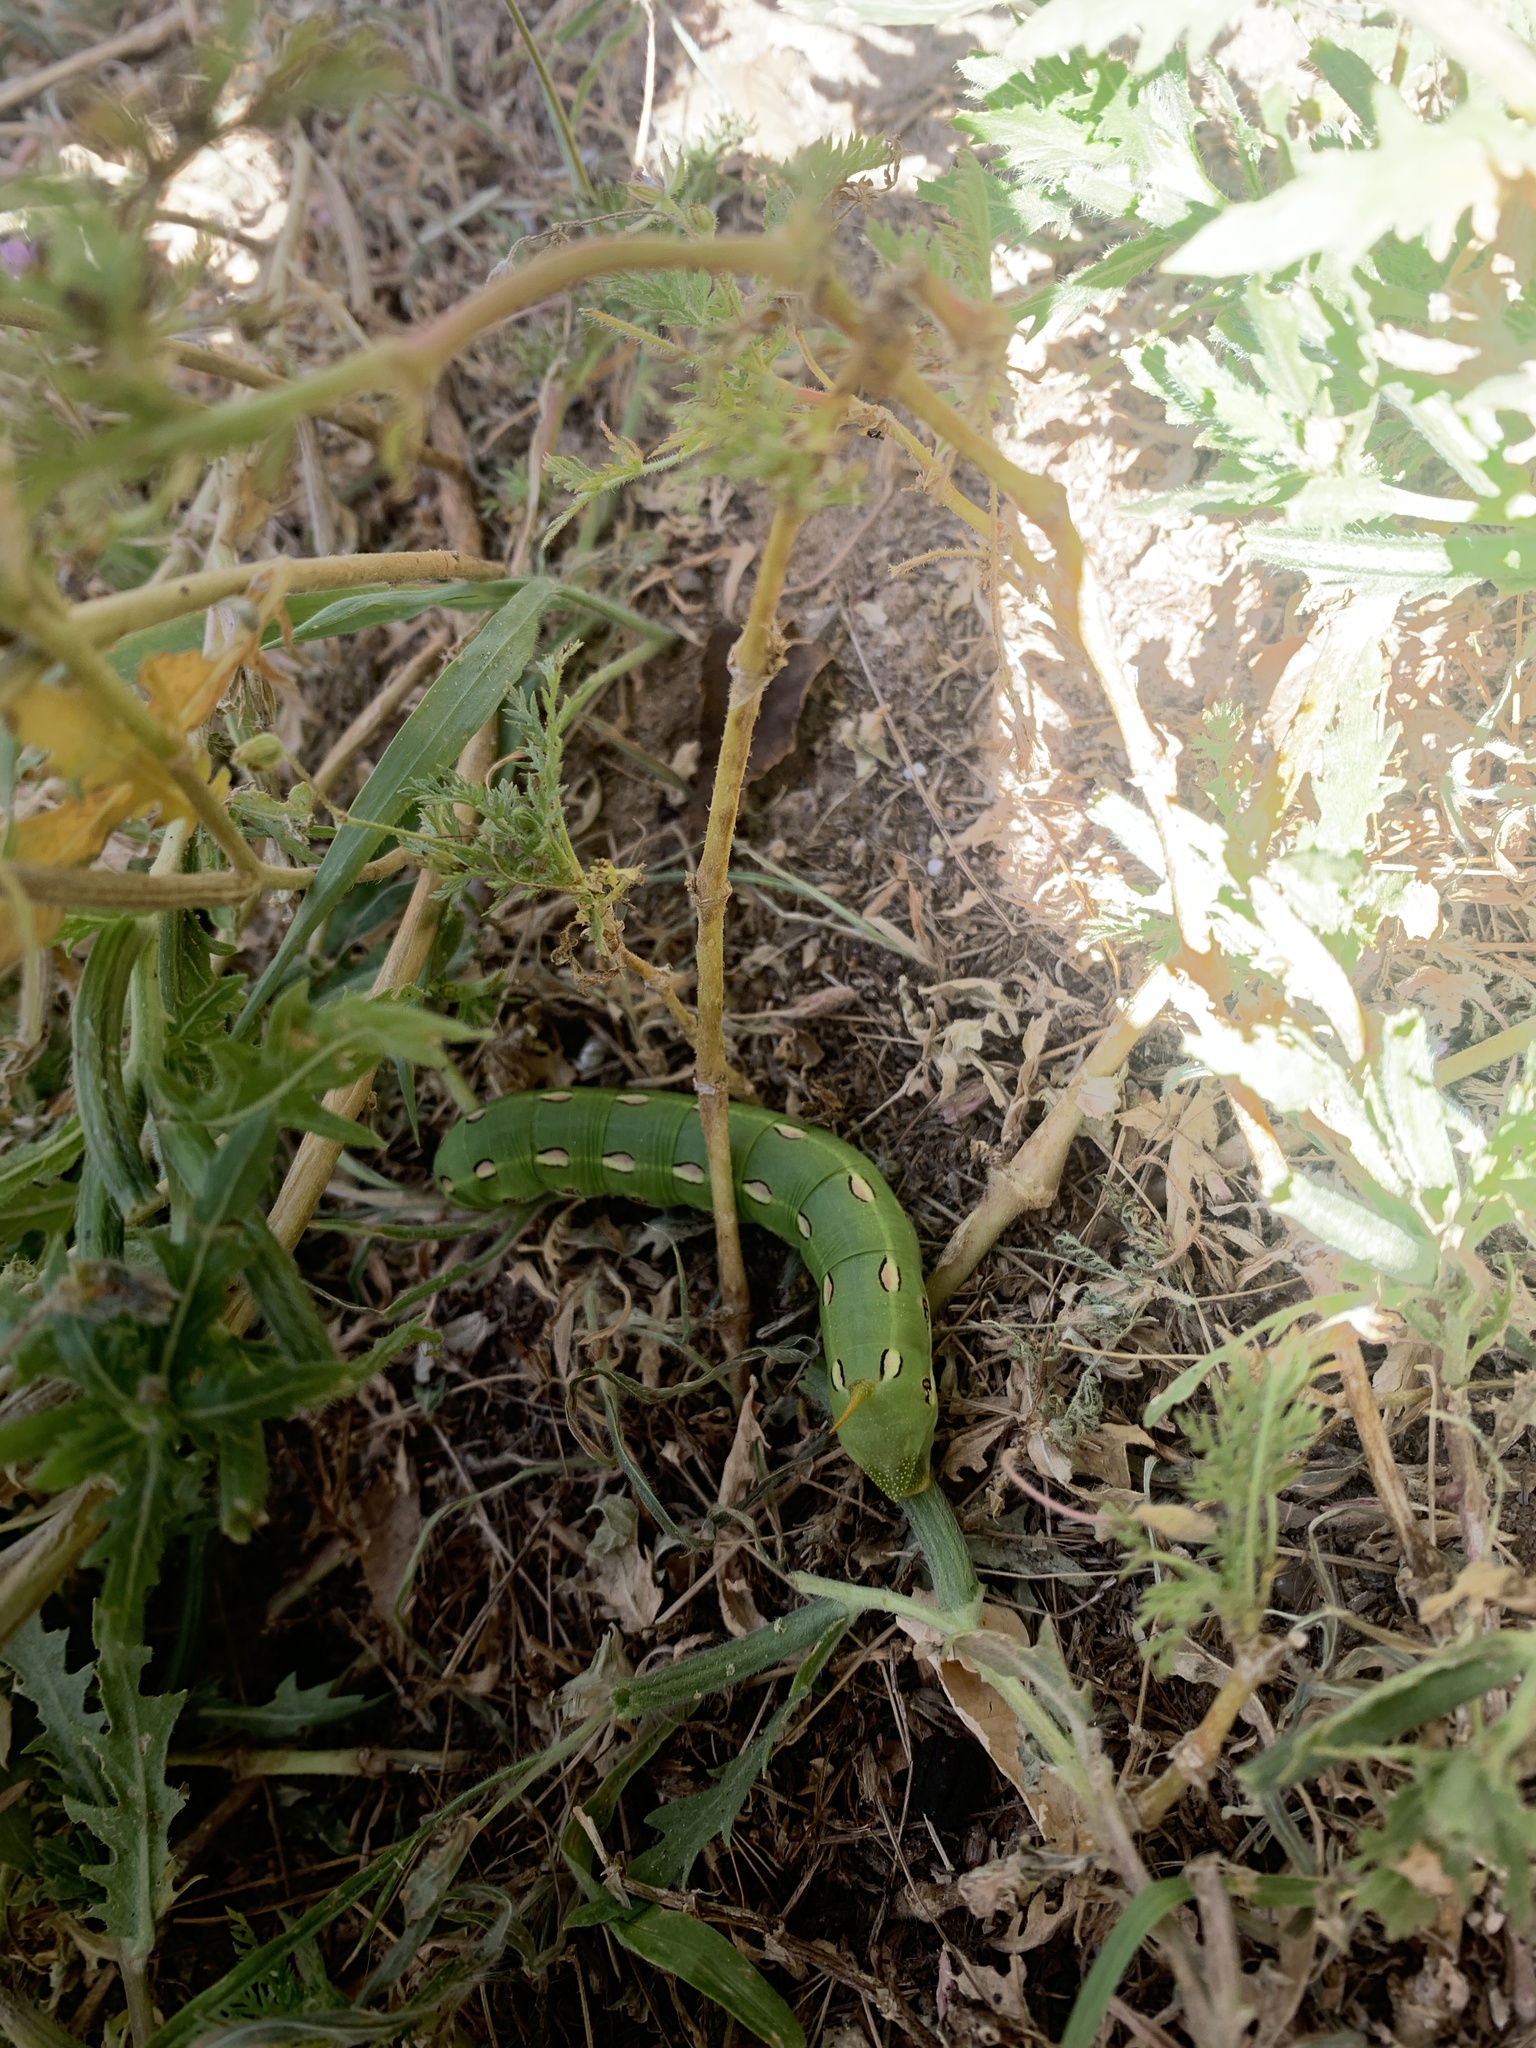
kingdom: Animalia
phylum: Arthropoda
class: Insecta
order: Lepidoptera
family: Sphingidae
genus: Hyles
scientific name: Hyles lineata
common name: White-lined sphinx
